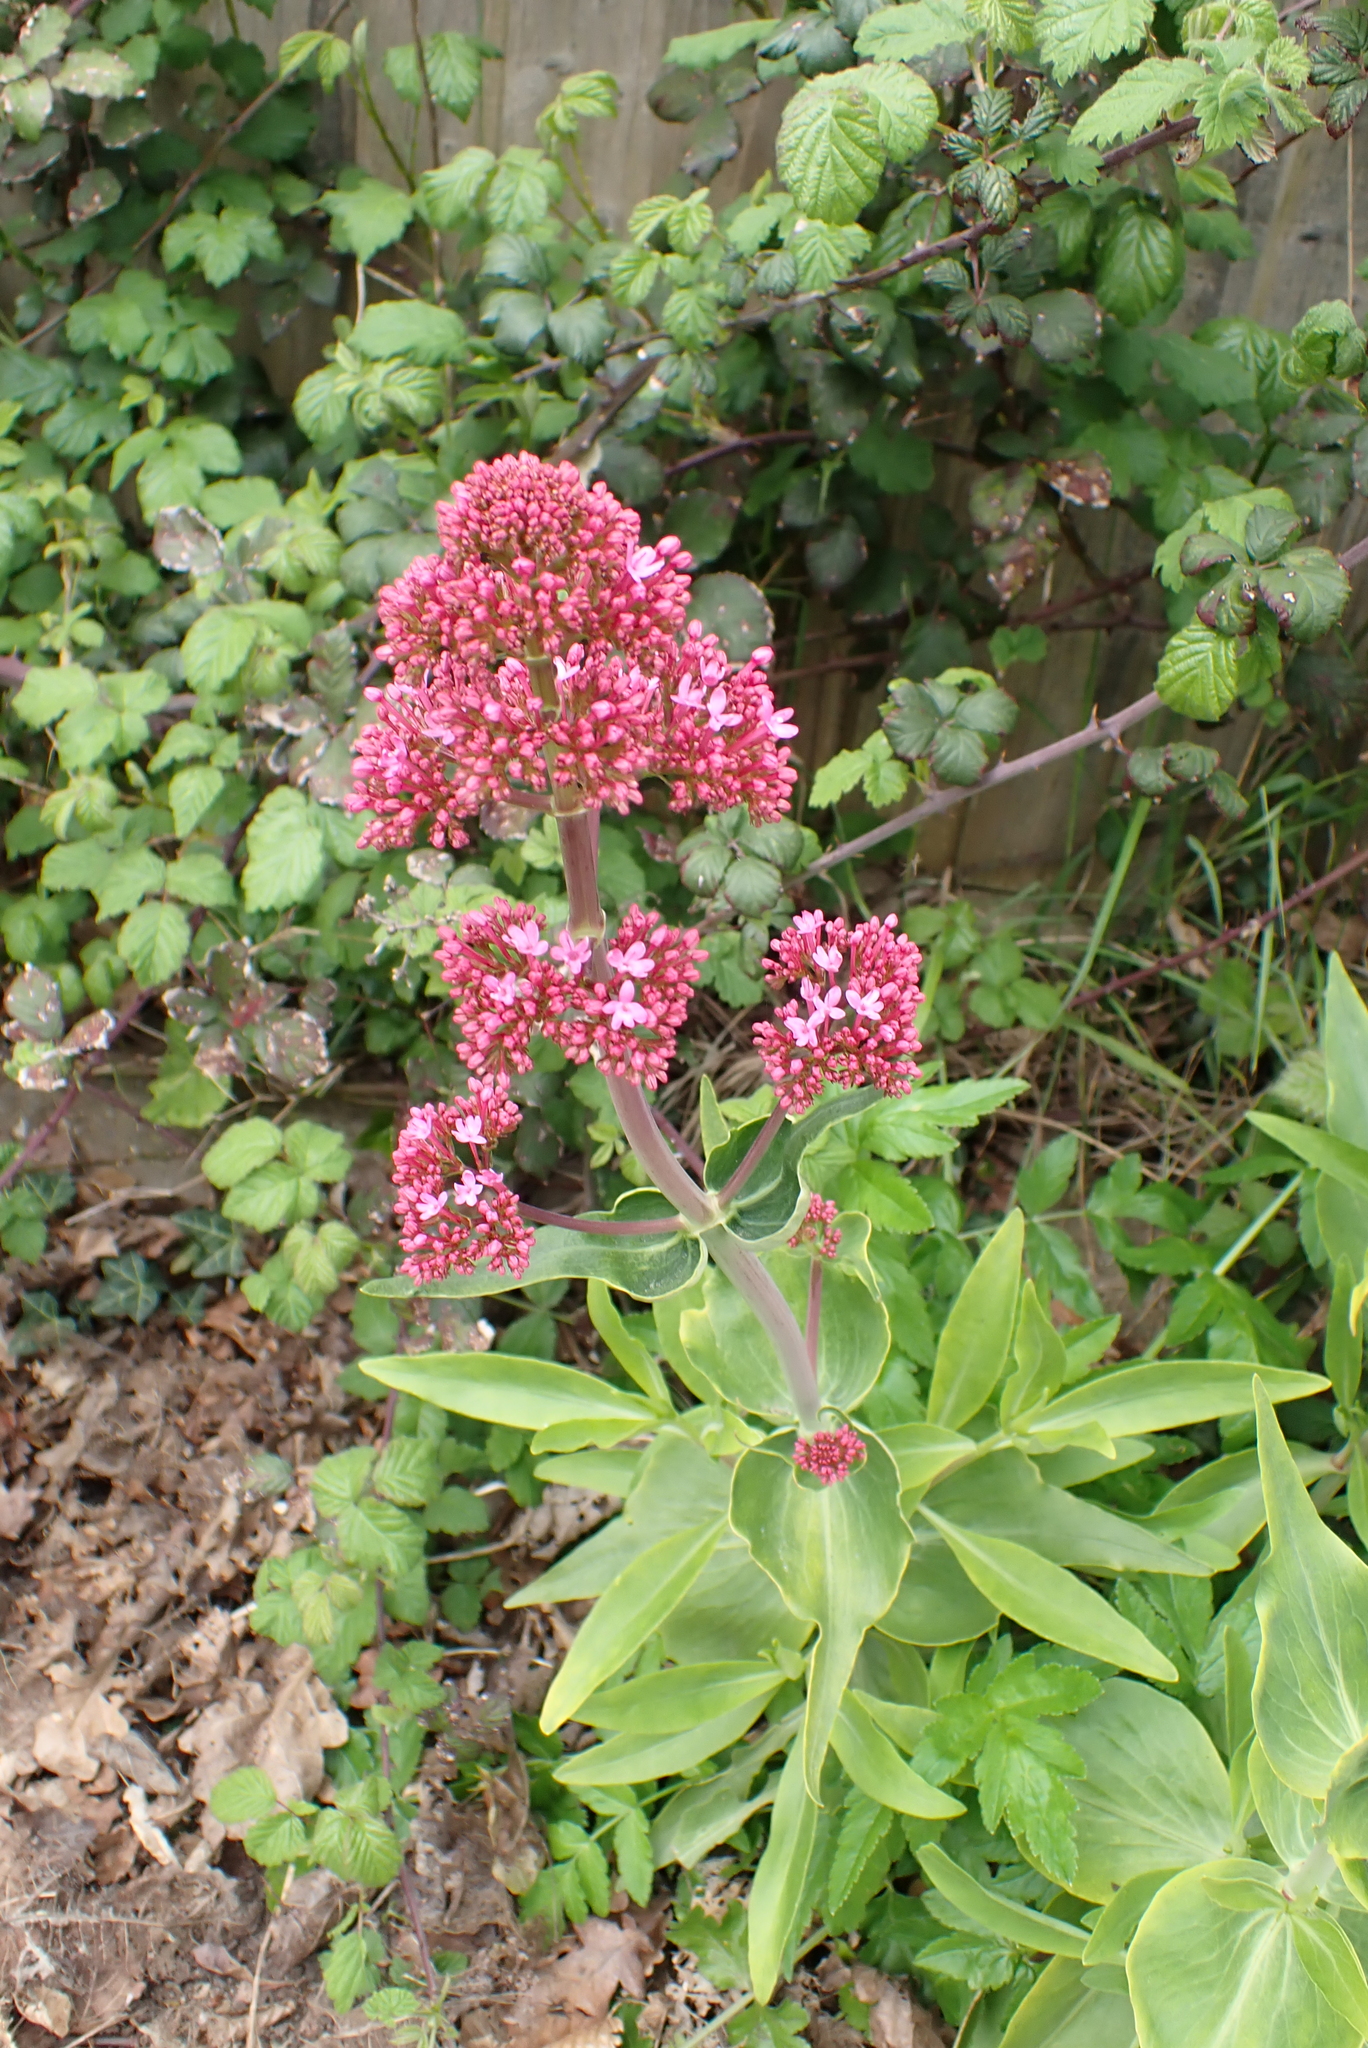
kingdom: Plantae
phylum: Tracheophyta
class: Magnoliopsida
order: Dipsacales
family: Caprifoliaceae
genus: Centranthus
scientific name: Centranthus ruber
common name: Red valerian
